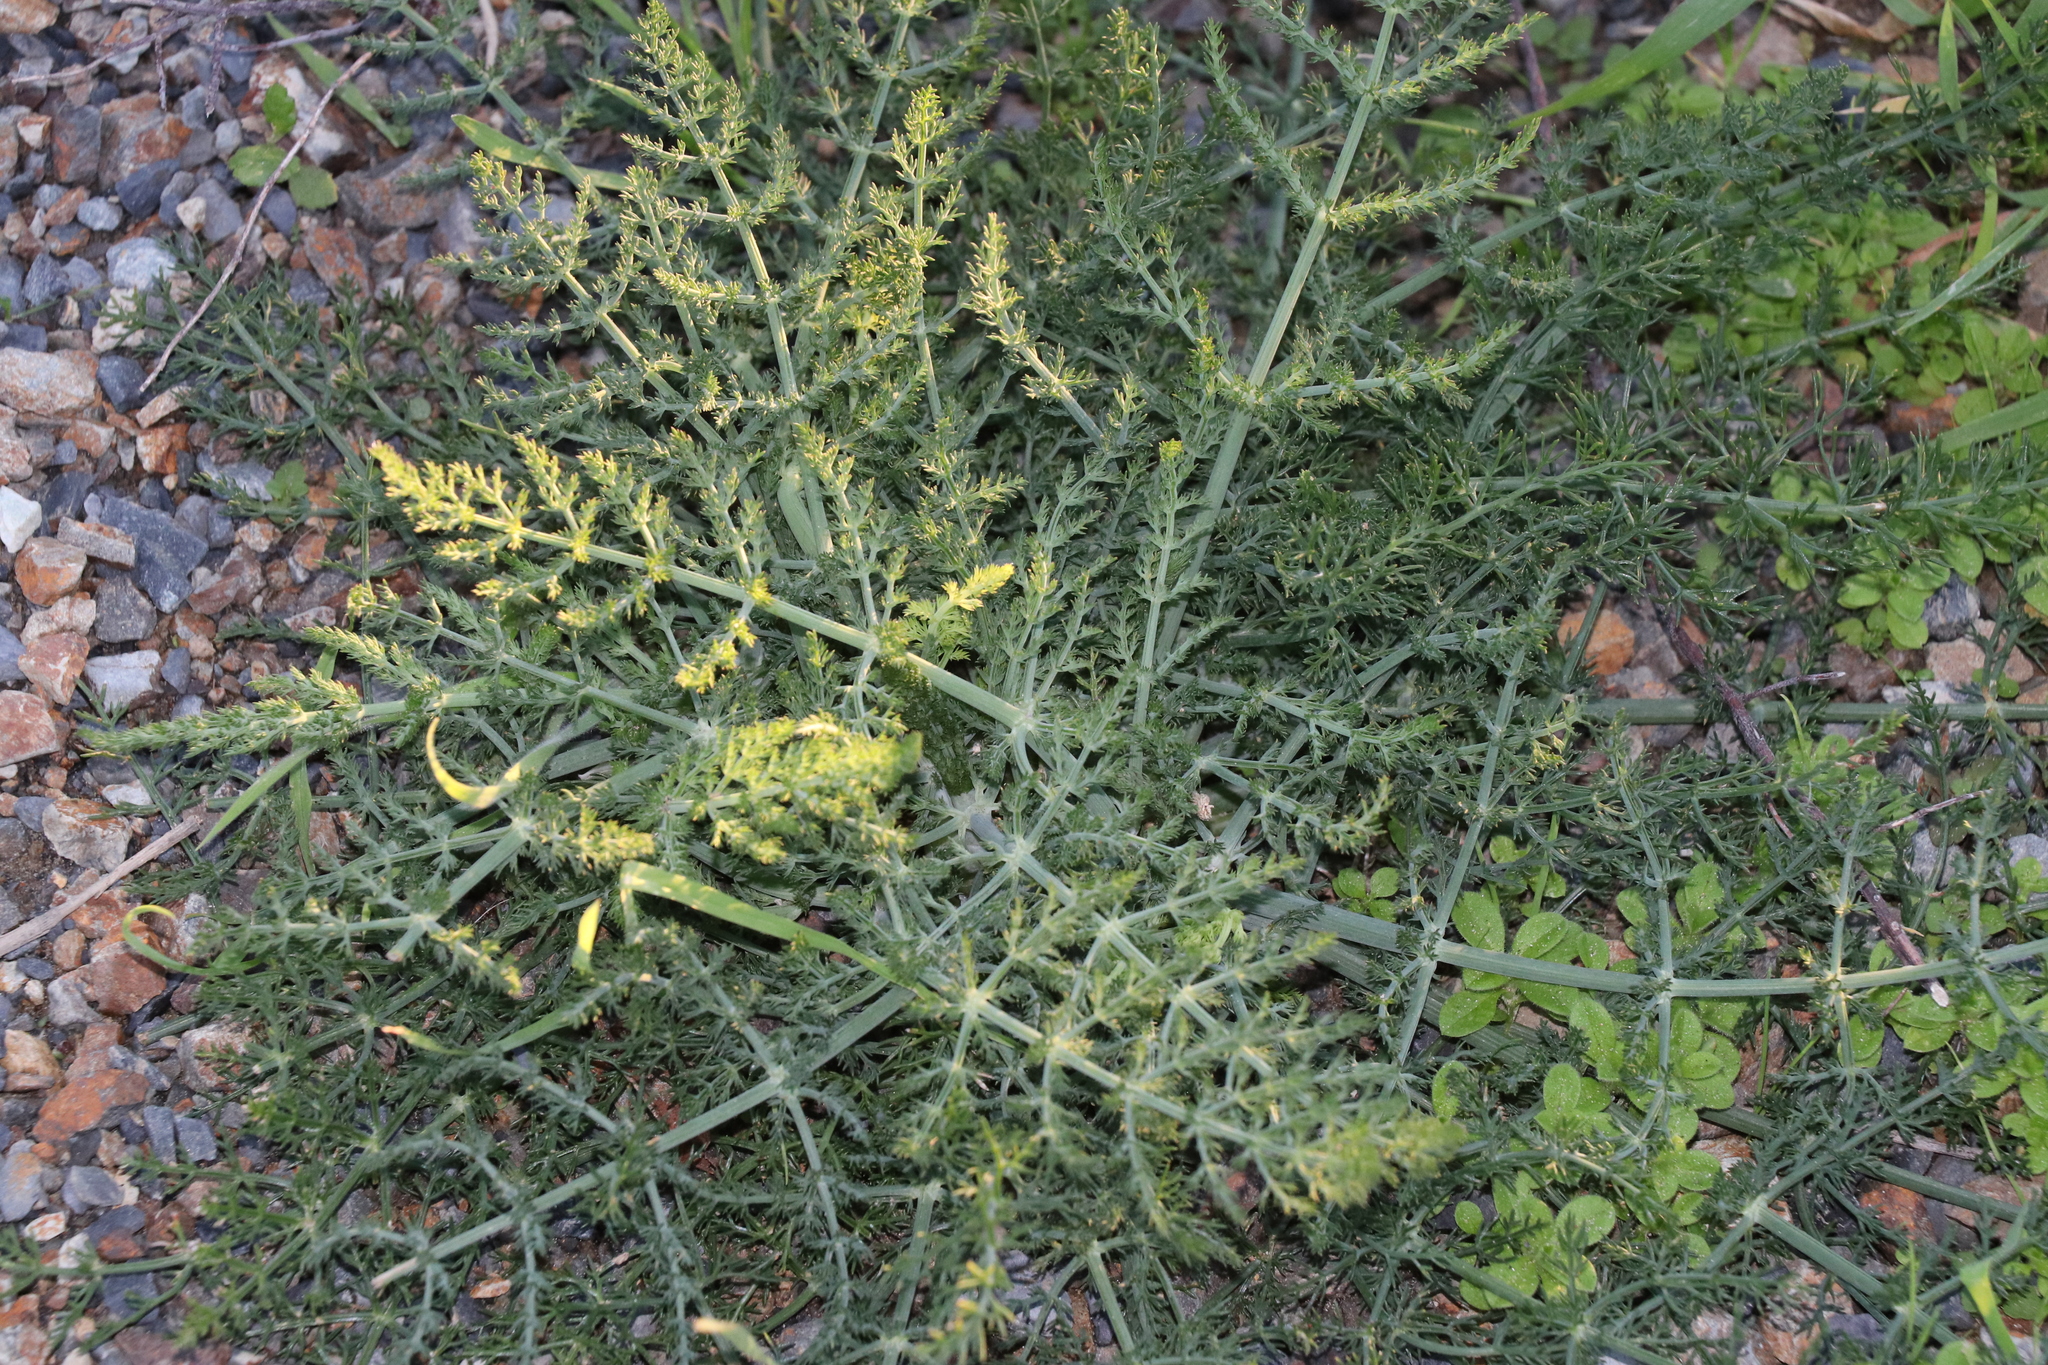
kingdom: Plantae
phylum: Tracheophyta
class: Magnoliopsida
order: Apiales
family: Apiaceae
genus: Foeniculum
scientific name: Foeniculum vulgare
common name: Fennel
